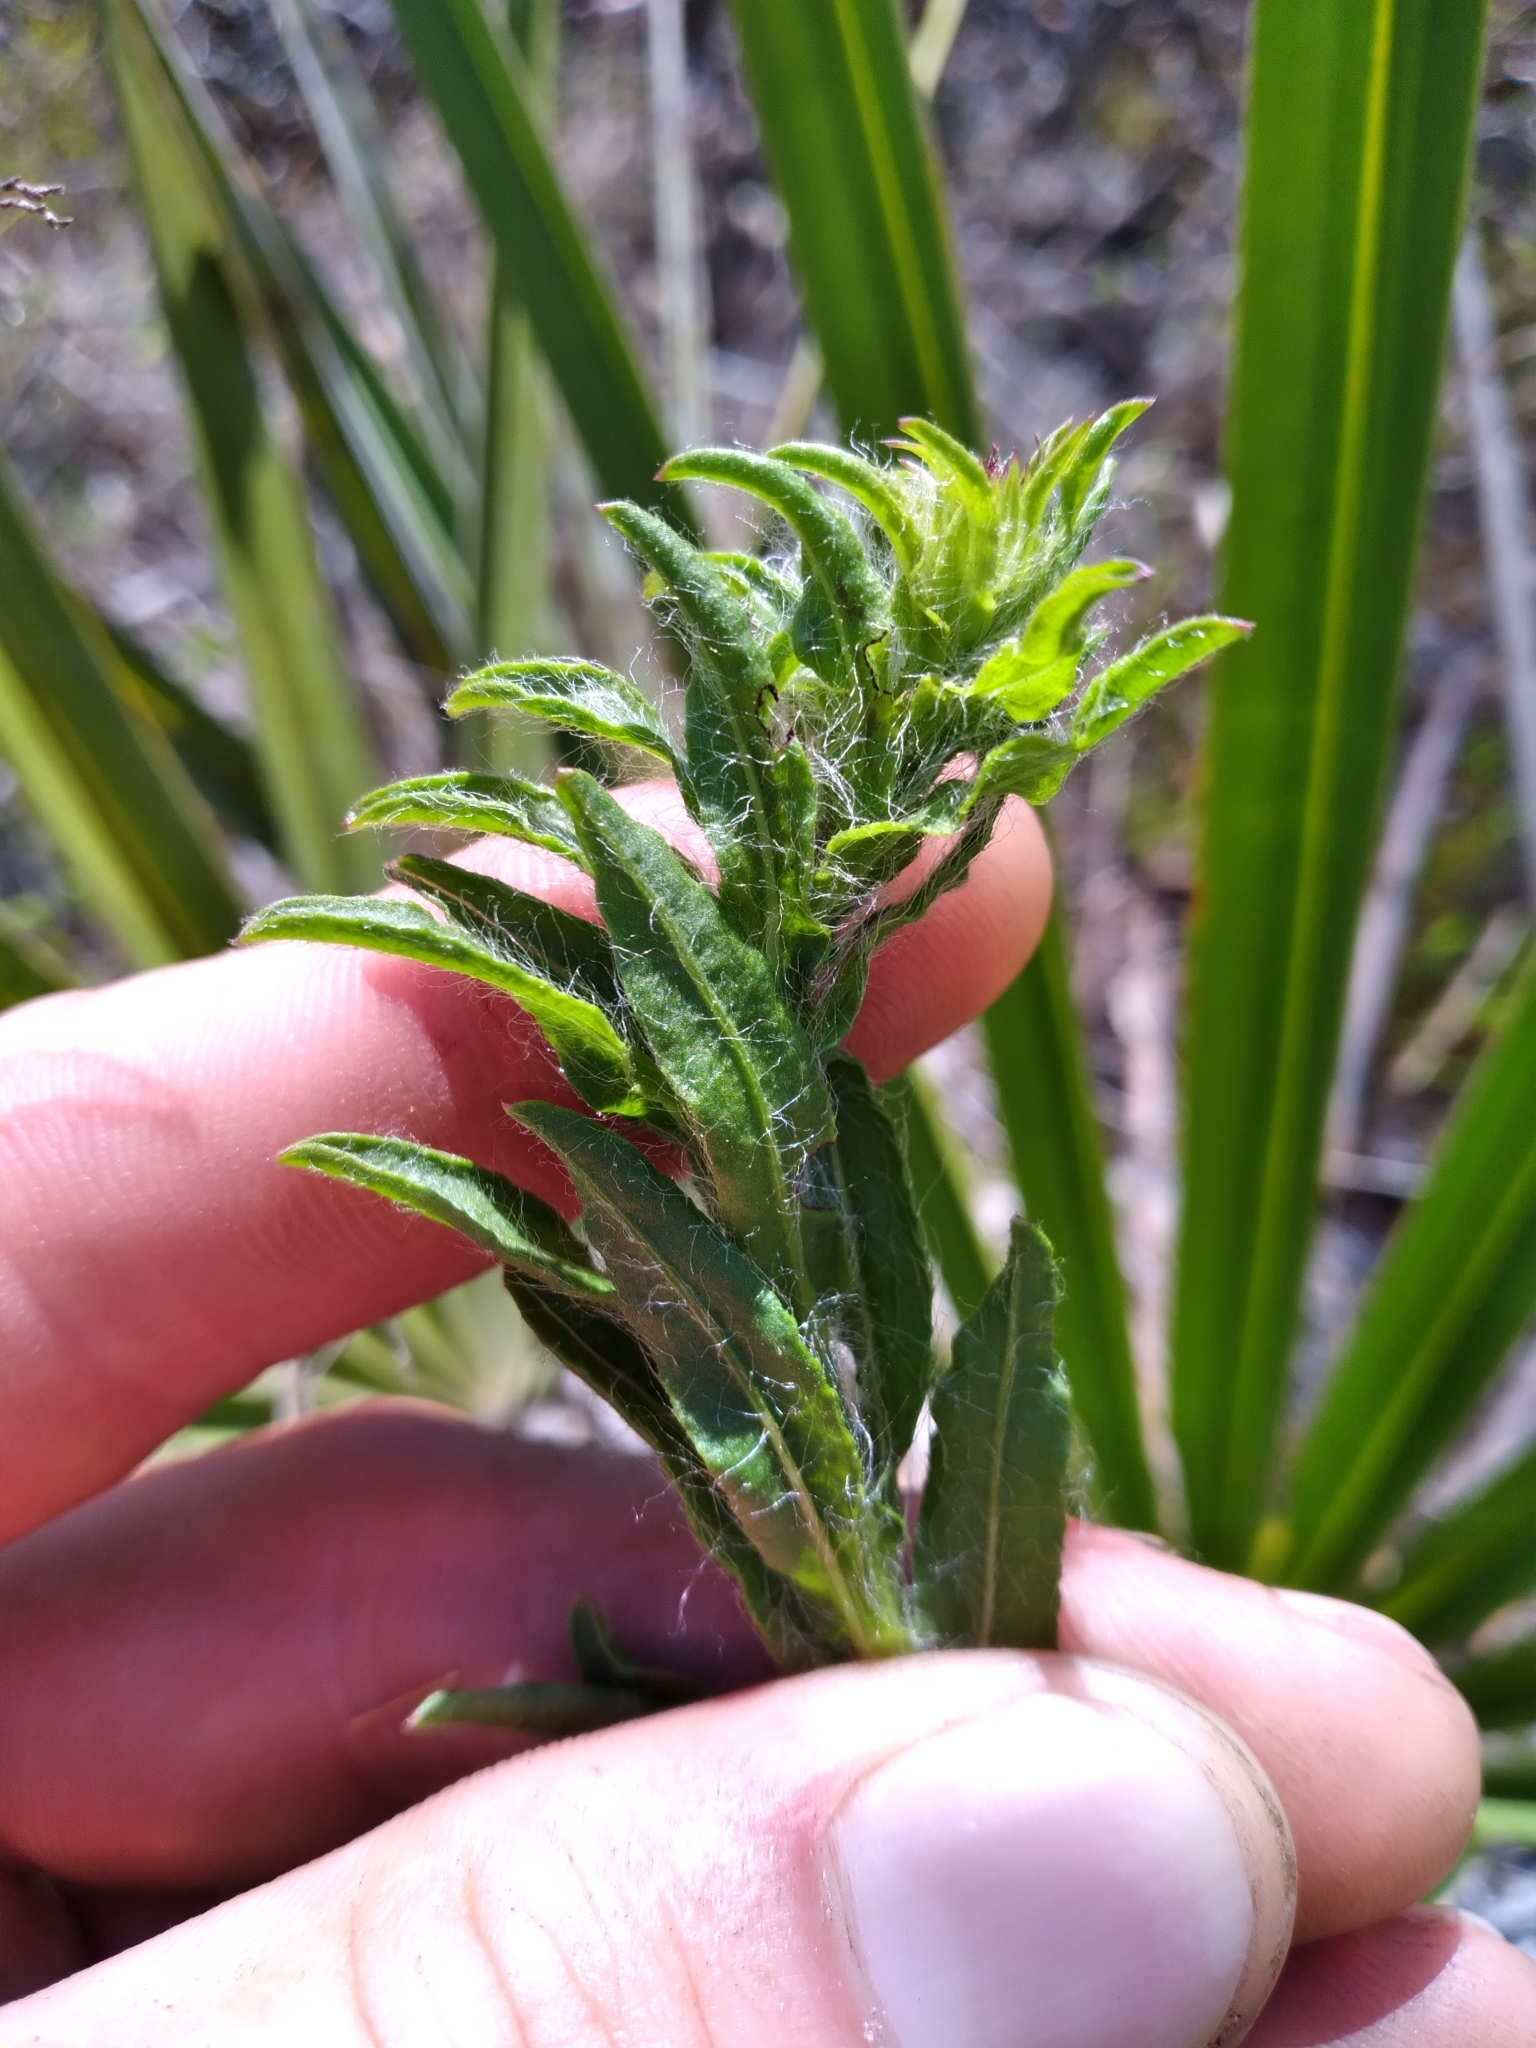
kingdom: Plantae
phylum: Tracheophyta
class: Magnoliopsida
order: Asterales
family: Asteraceae
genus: Chrysopsis
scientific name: Chrysopsis subulata
